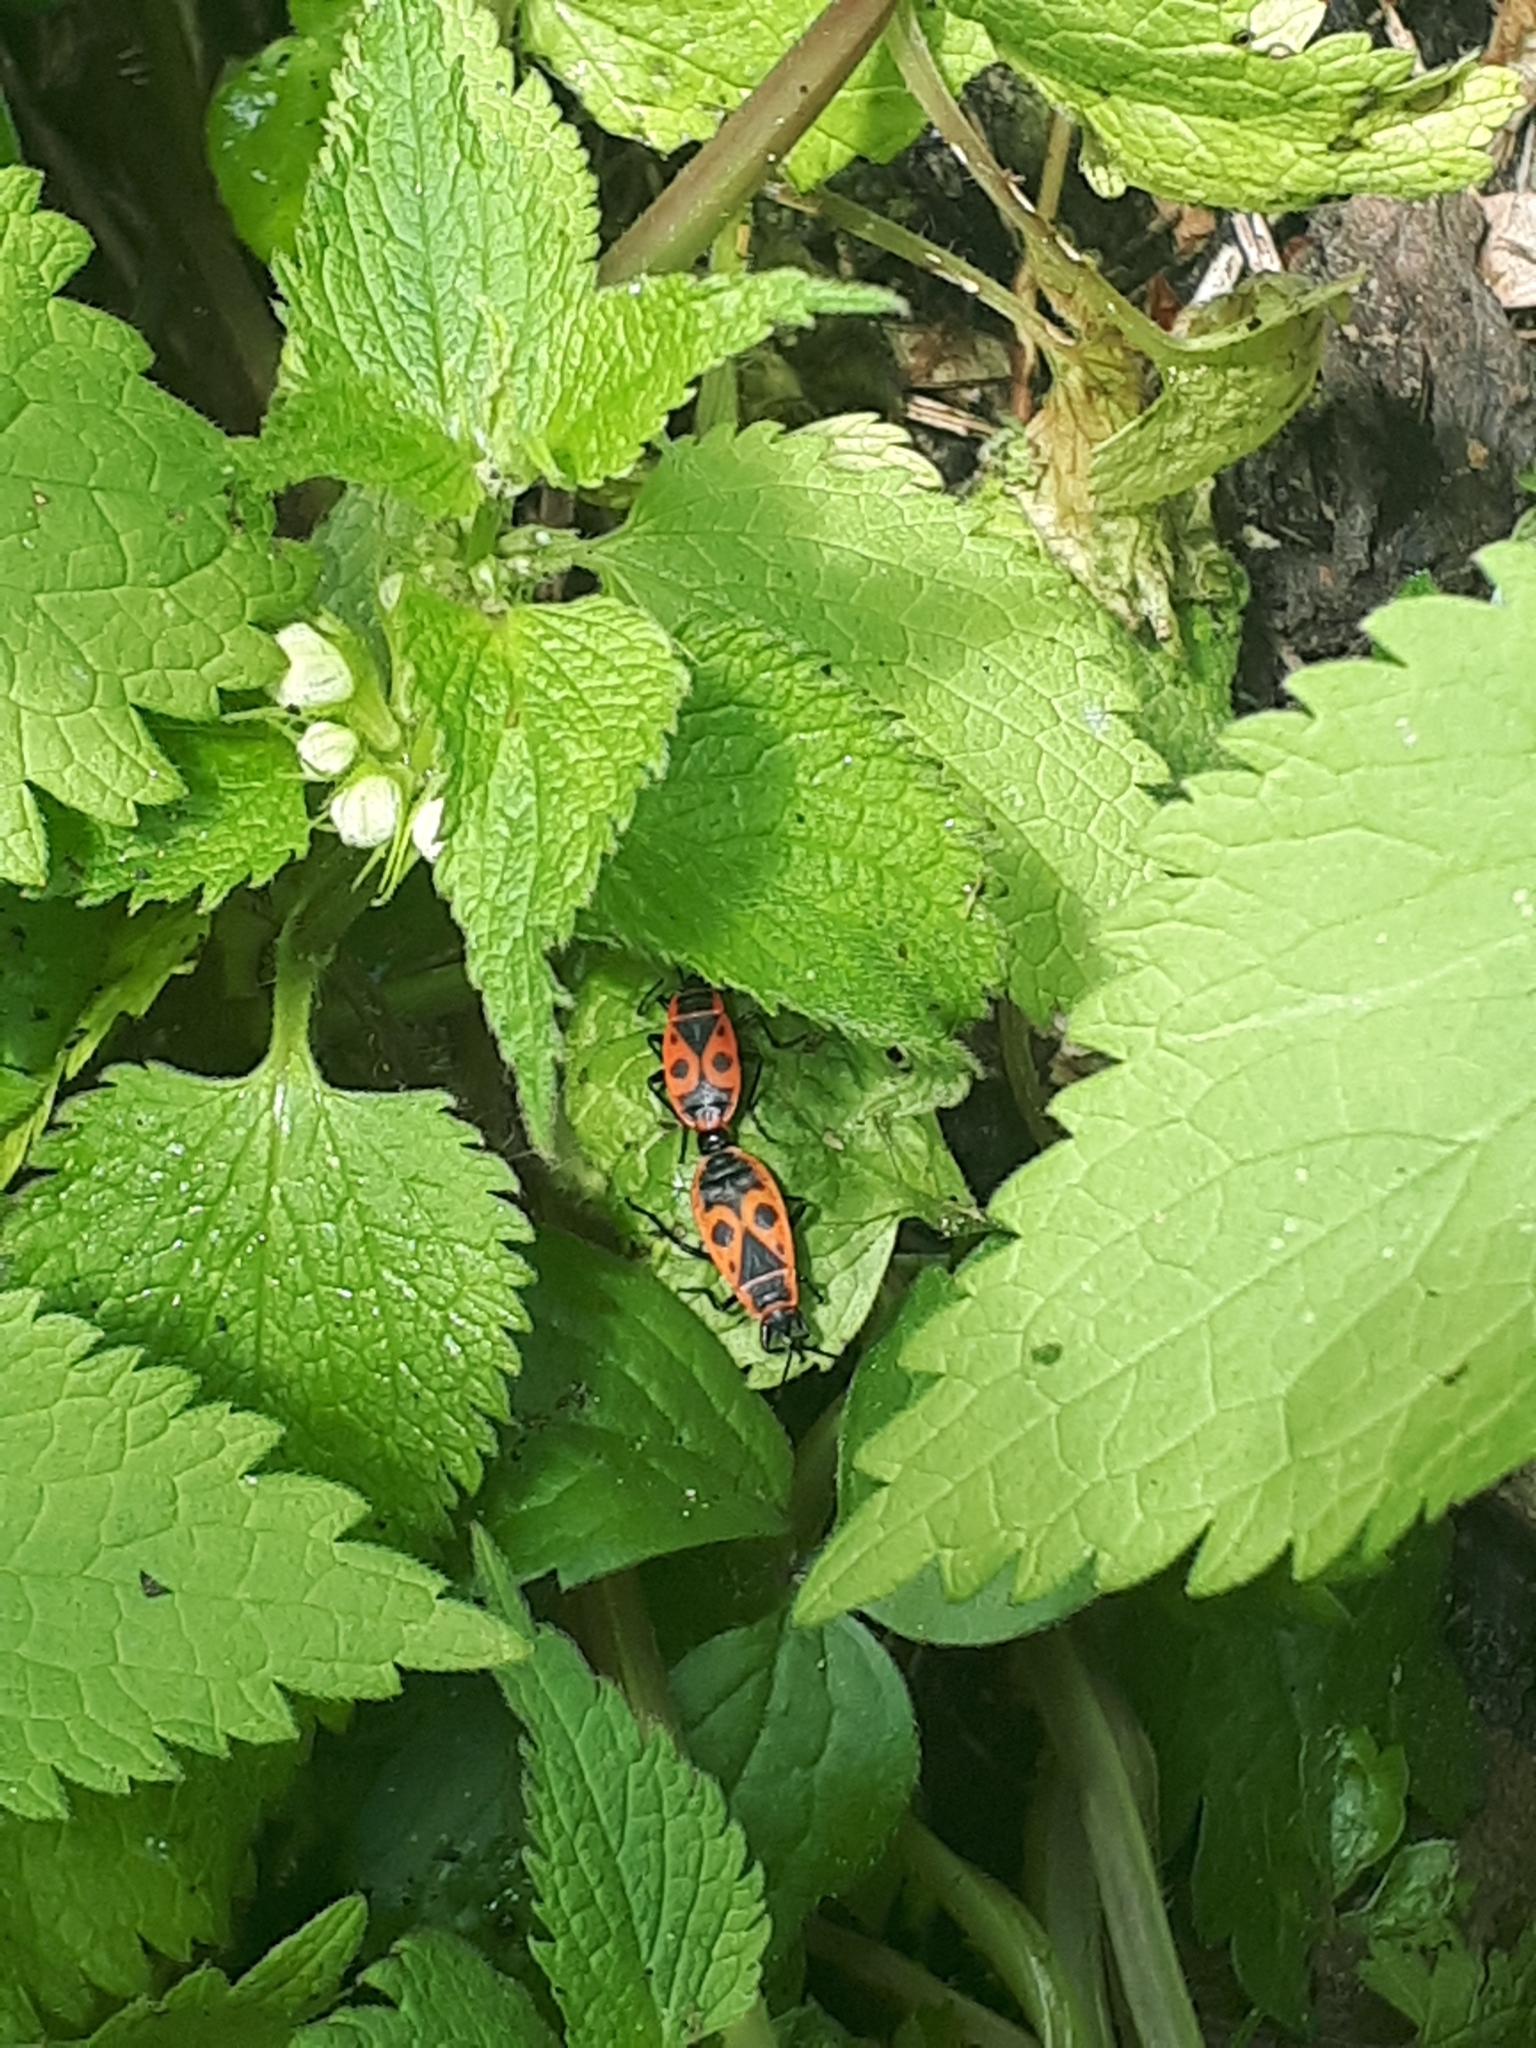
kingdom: Animalia
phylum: Arthropoda
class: Insecta
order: Hemiptera
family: Pyrrhocoridae
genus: Pyrrhocoris
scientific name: Pyrrhocoris apterus
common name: Firebug
